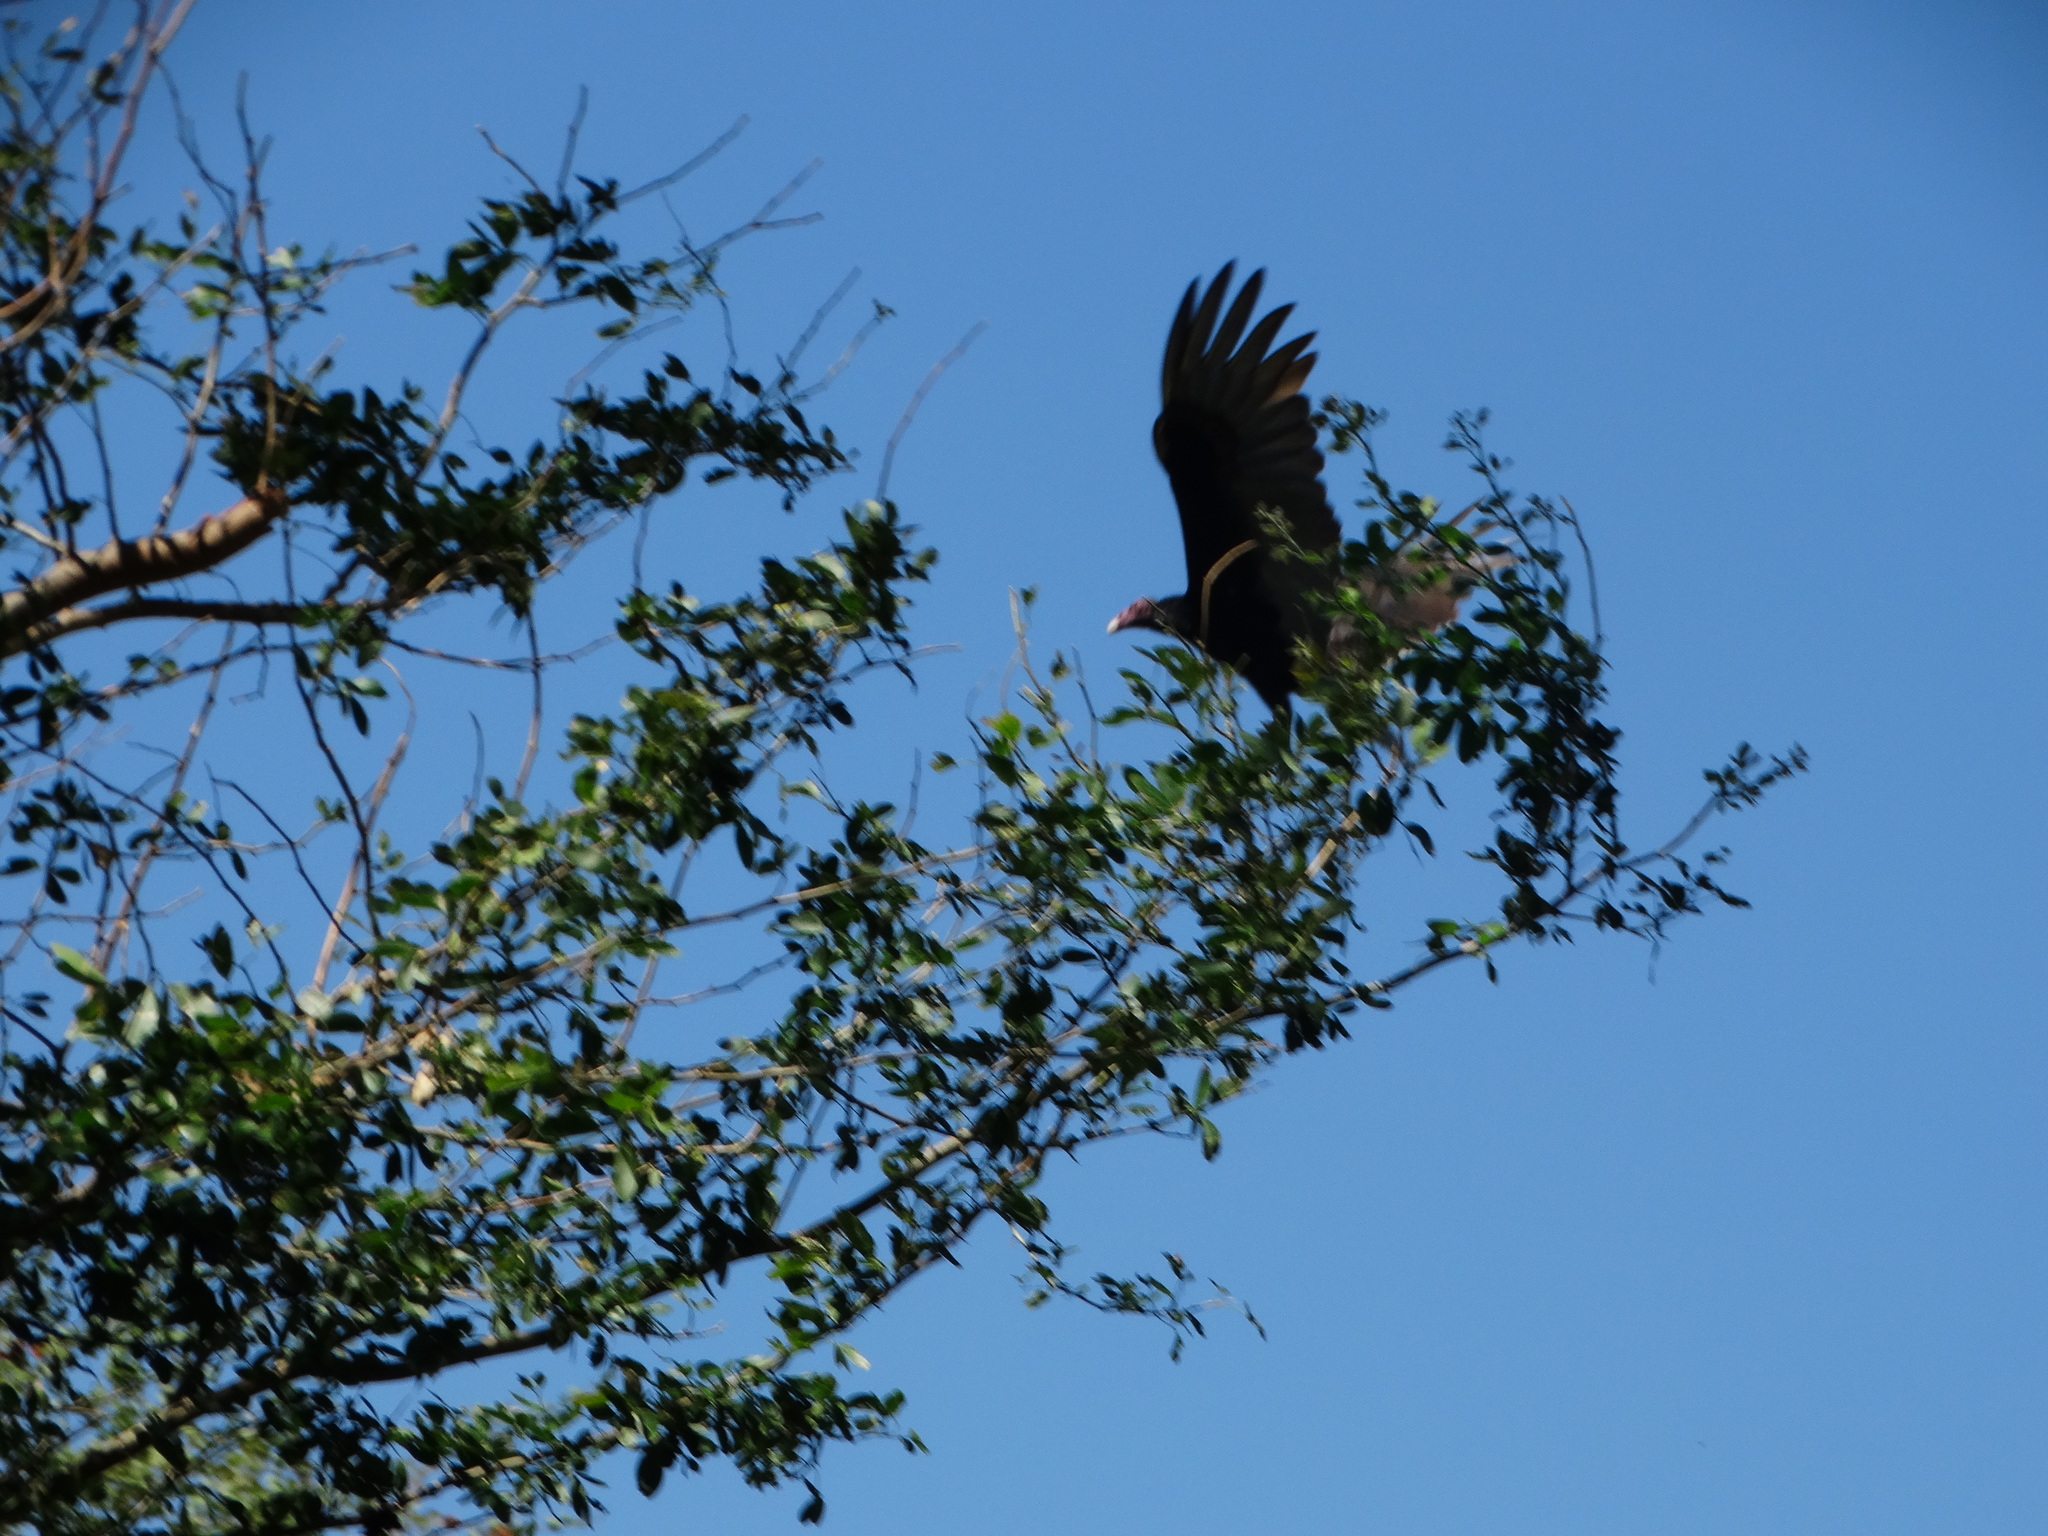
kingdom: Animalia
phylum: Chordata
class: Aves
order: Accipitriformes
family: Cathartidae
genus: Cathartes
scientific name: Cathartes aura
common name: Turkey vulture
